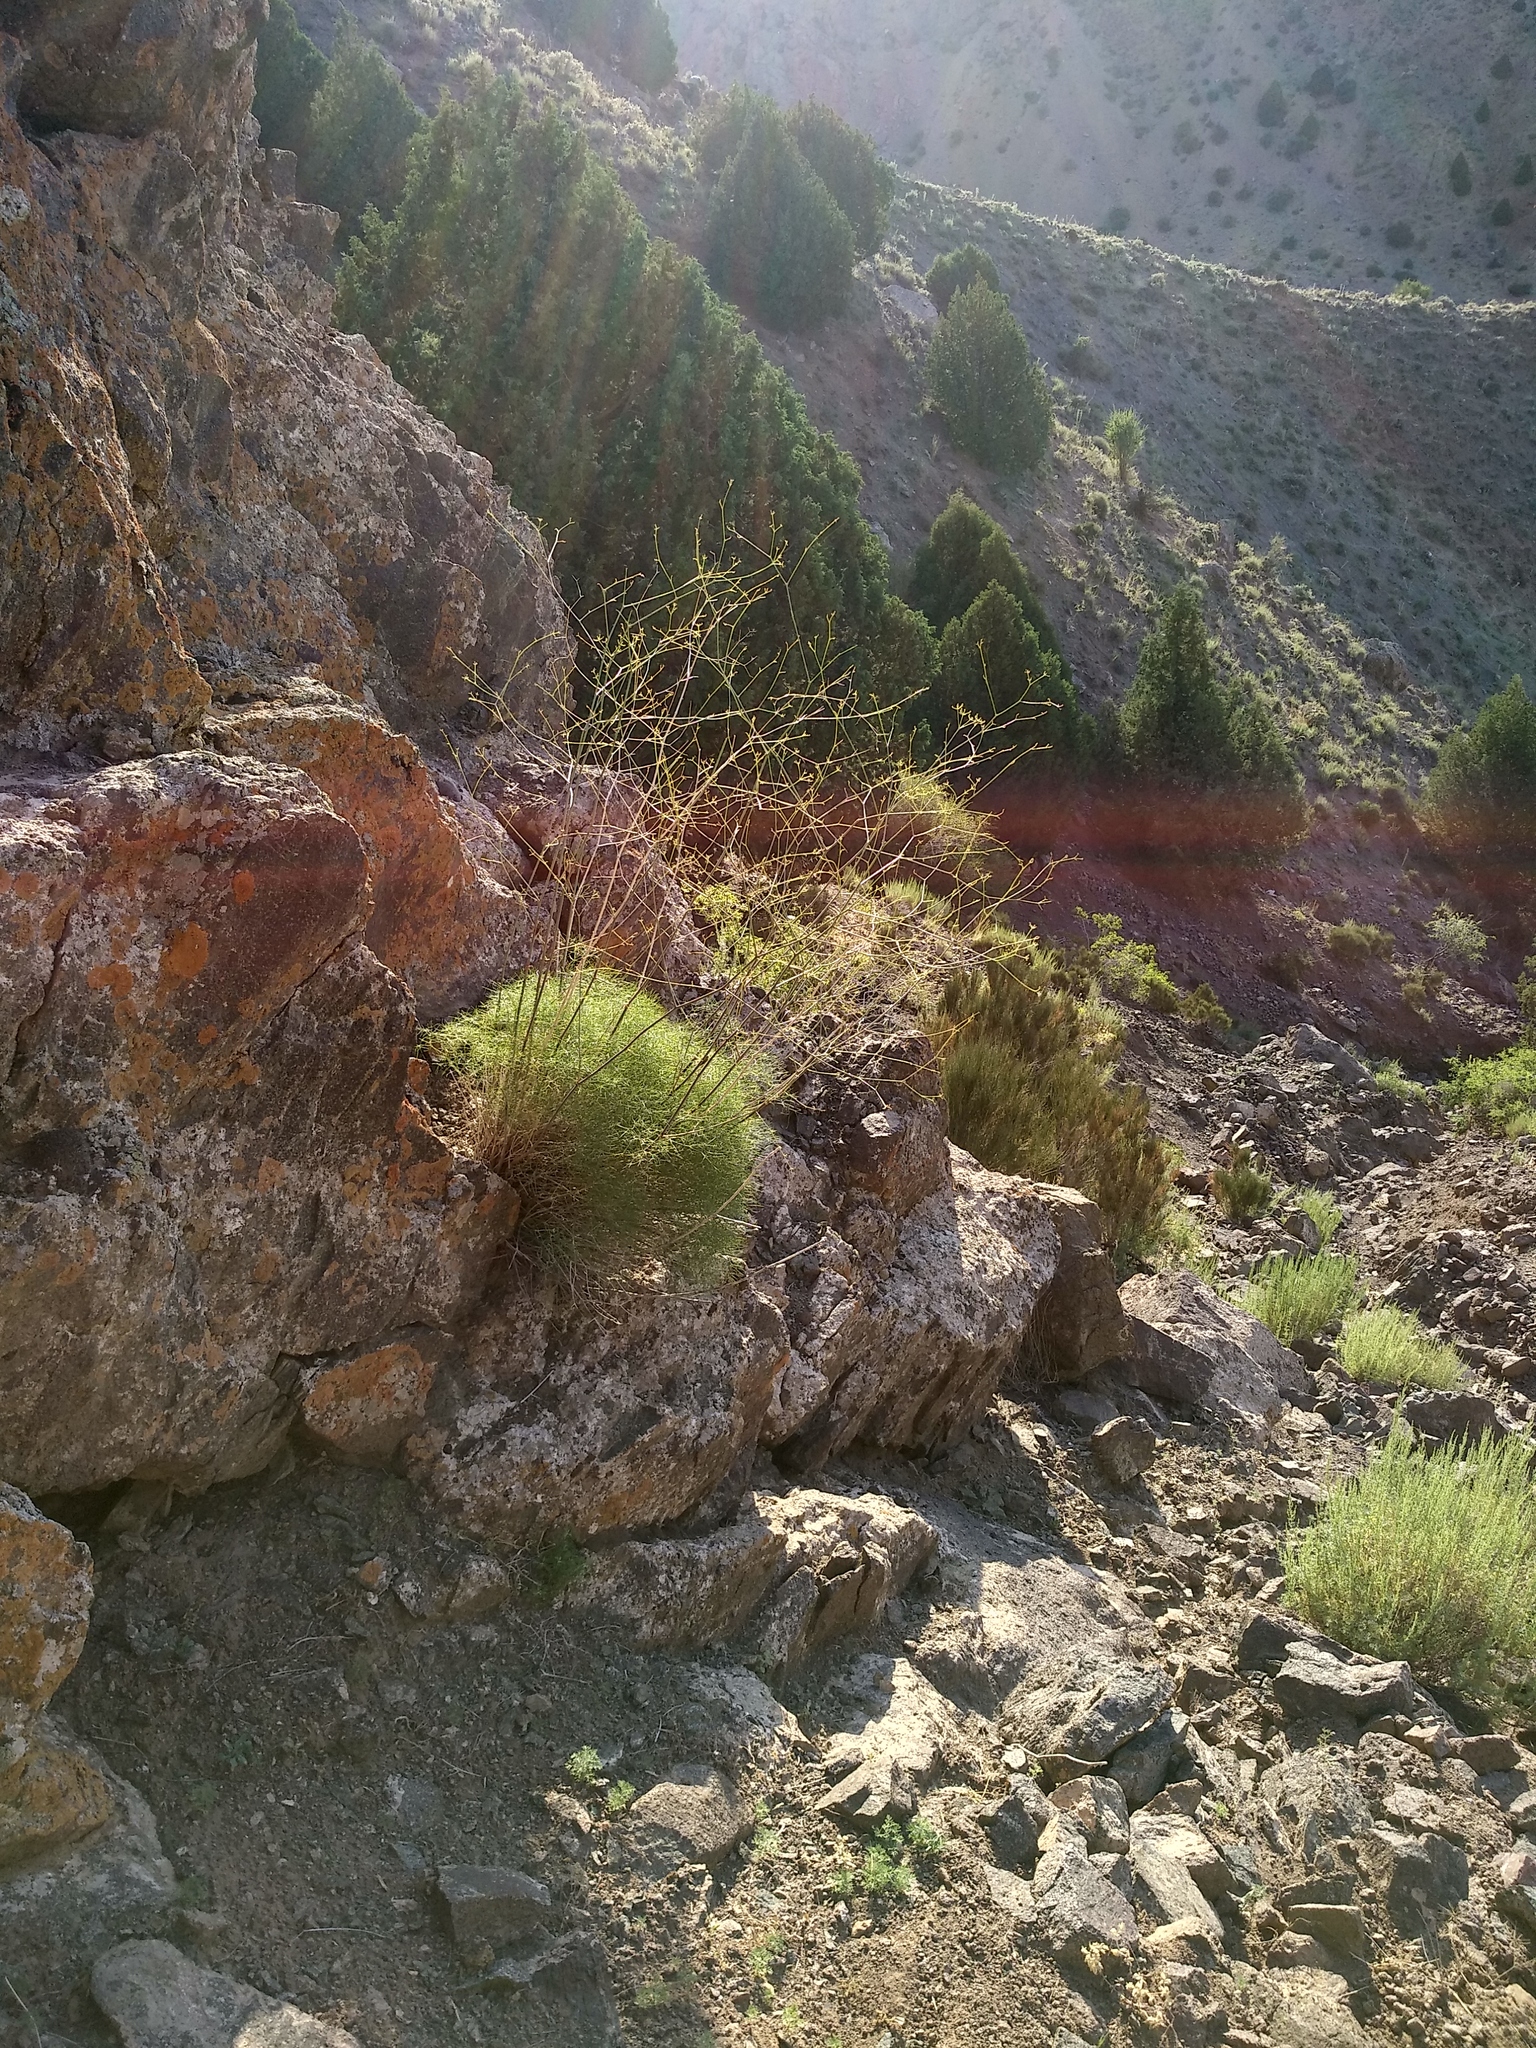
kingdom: Plantae
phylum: Tracheophyta
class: Magnoliopsida
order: Apiales
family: Apiaceae
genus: Calyptrosciadium
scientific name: Calyptrosciadium bungei
